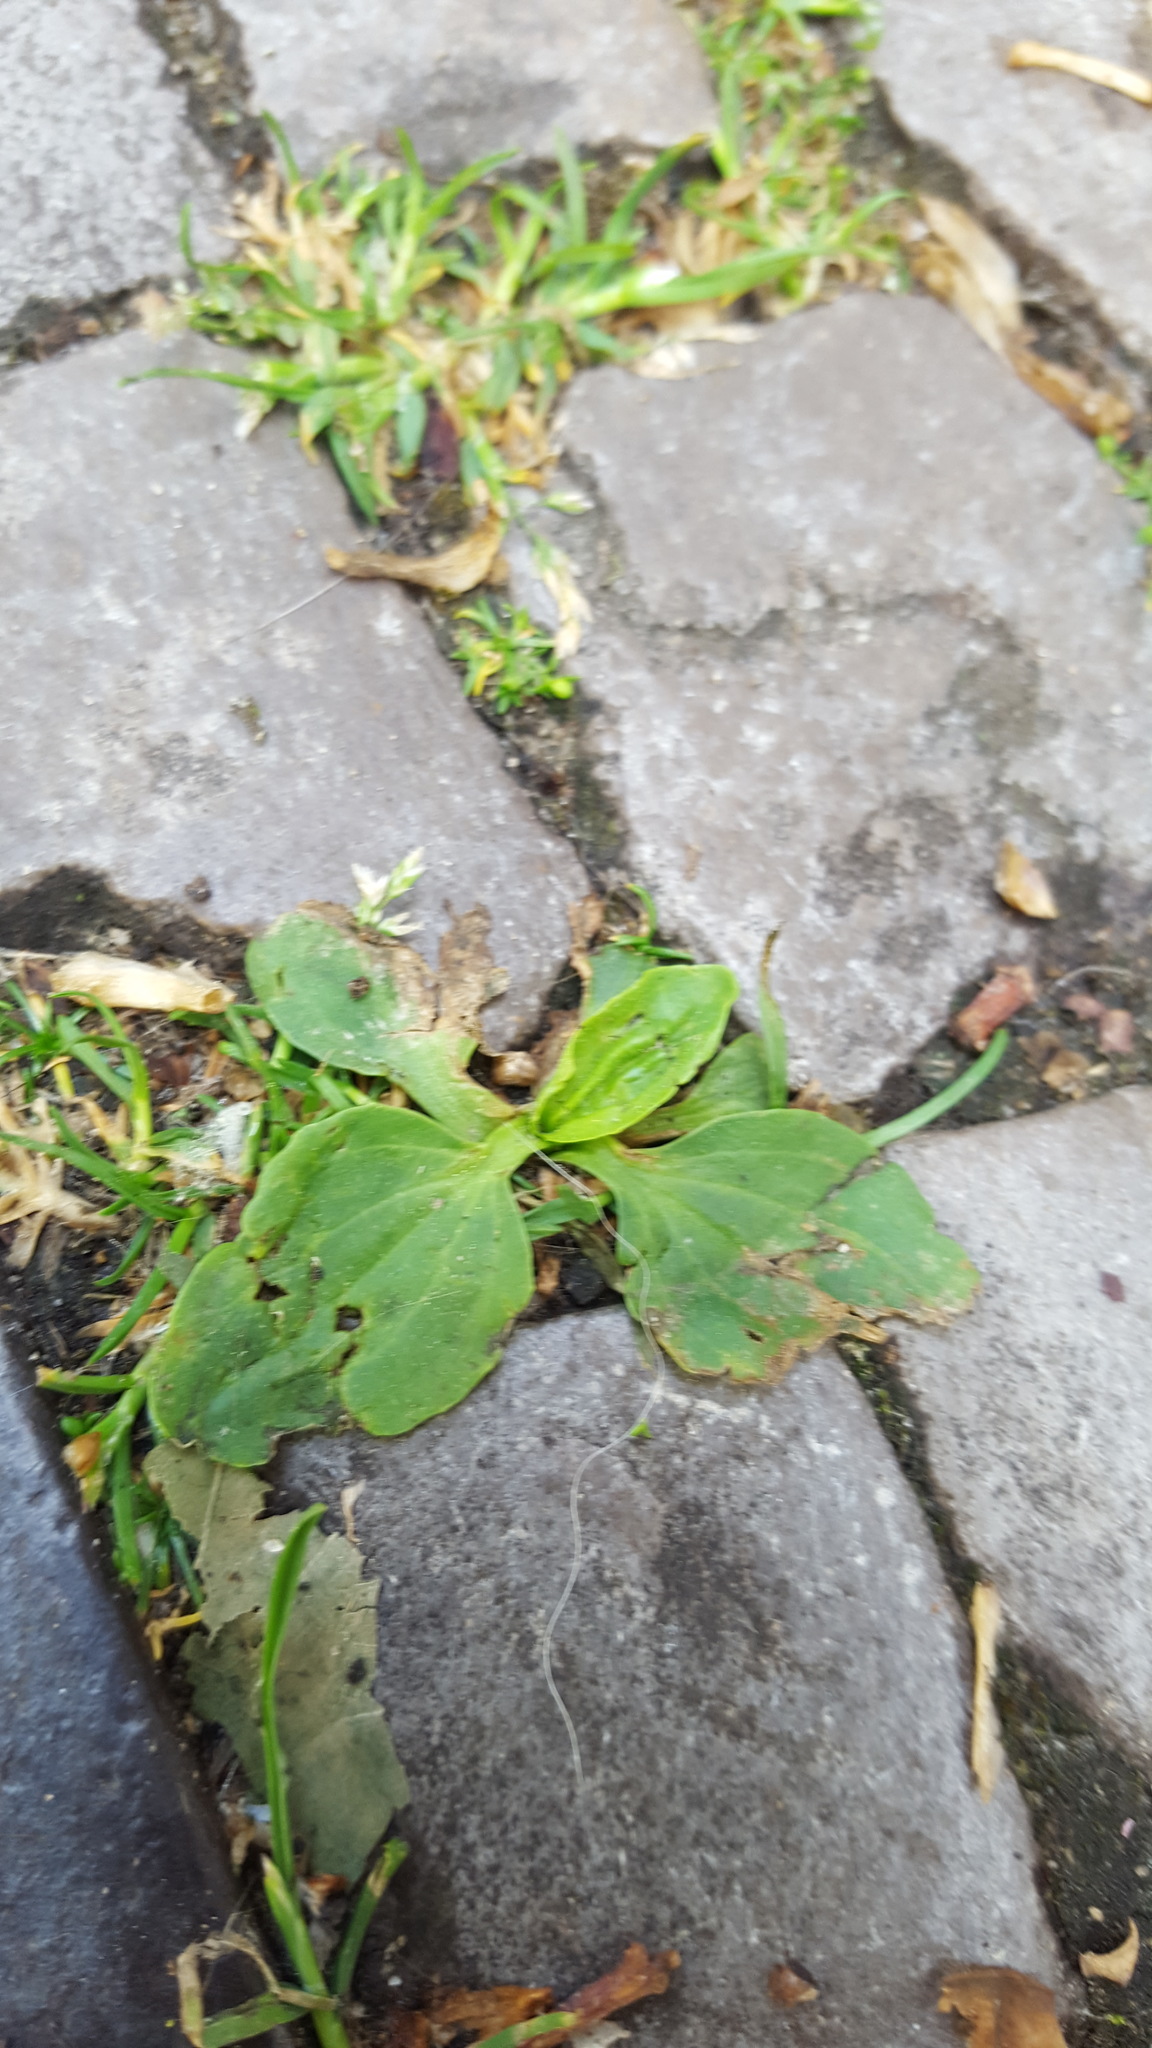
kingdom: Plantae
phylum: Tracheophyta
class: Magnoliopsida
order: Lamiales
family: Plantaginaceae
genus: Plantago
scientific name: Plantago major
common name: Common plantain
